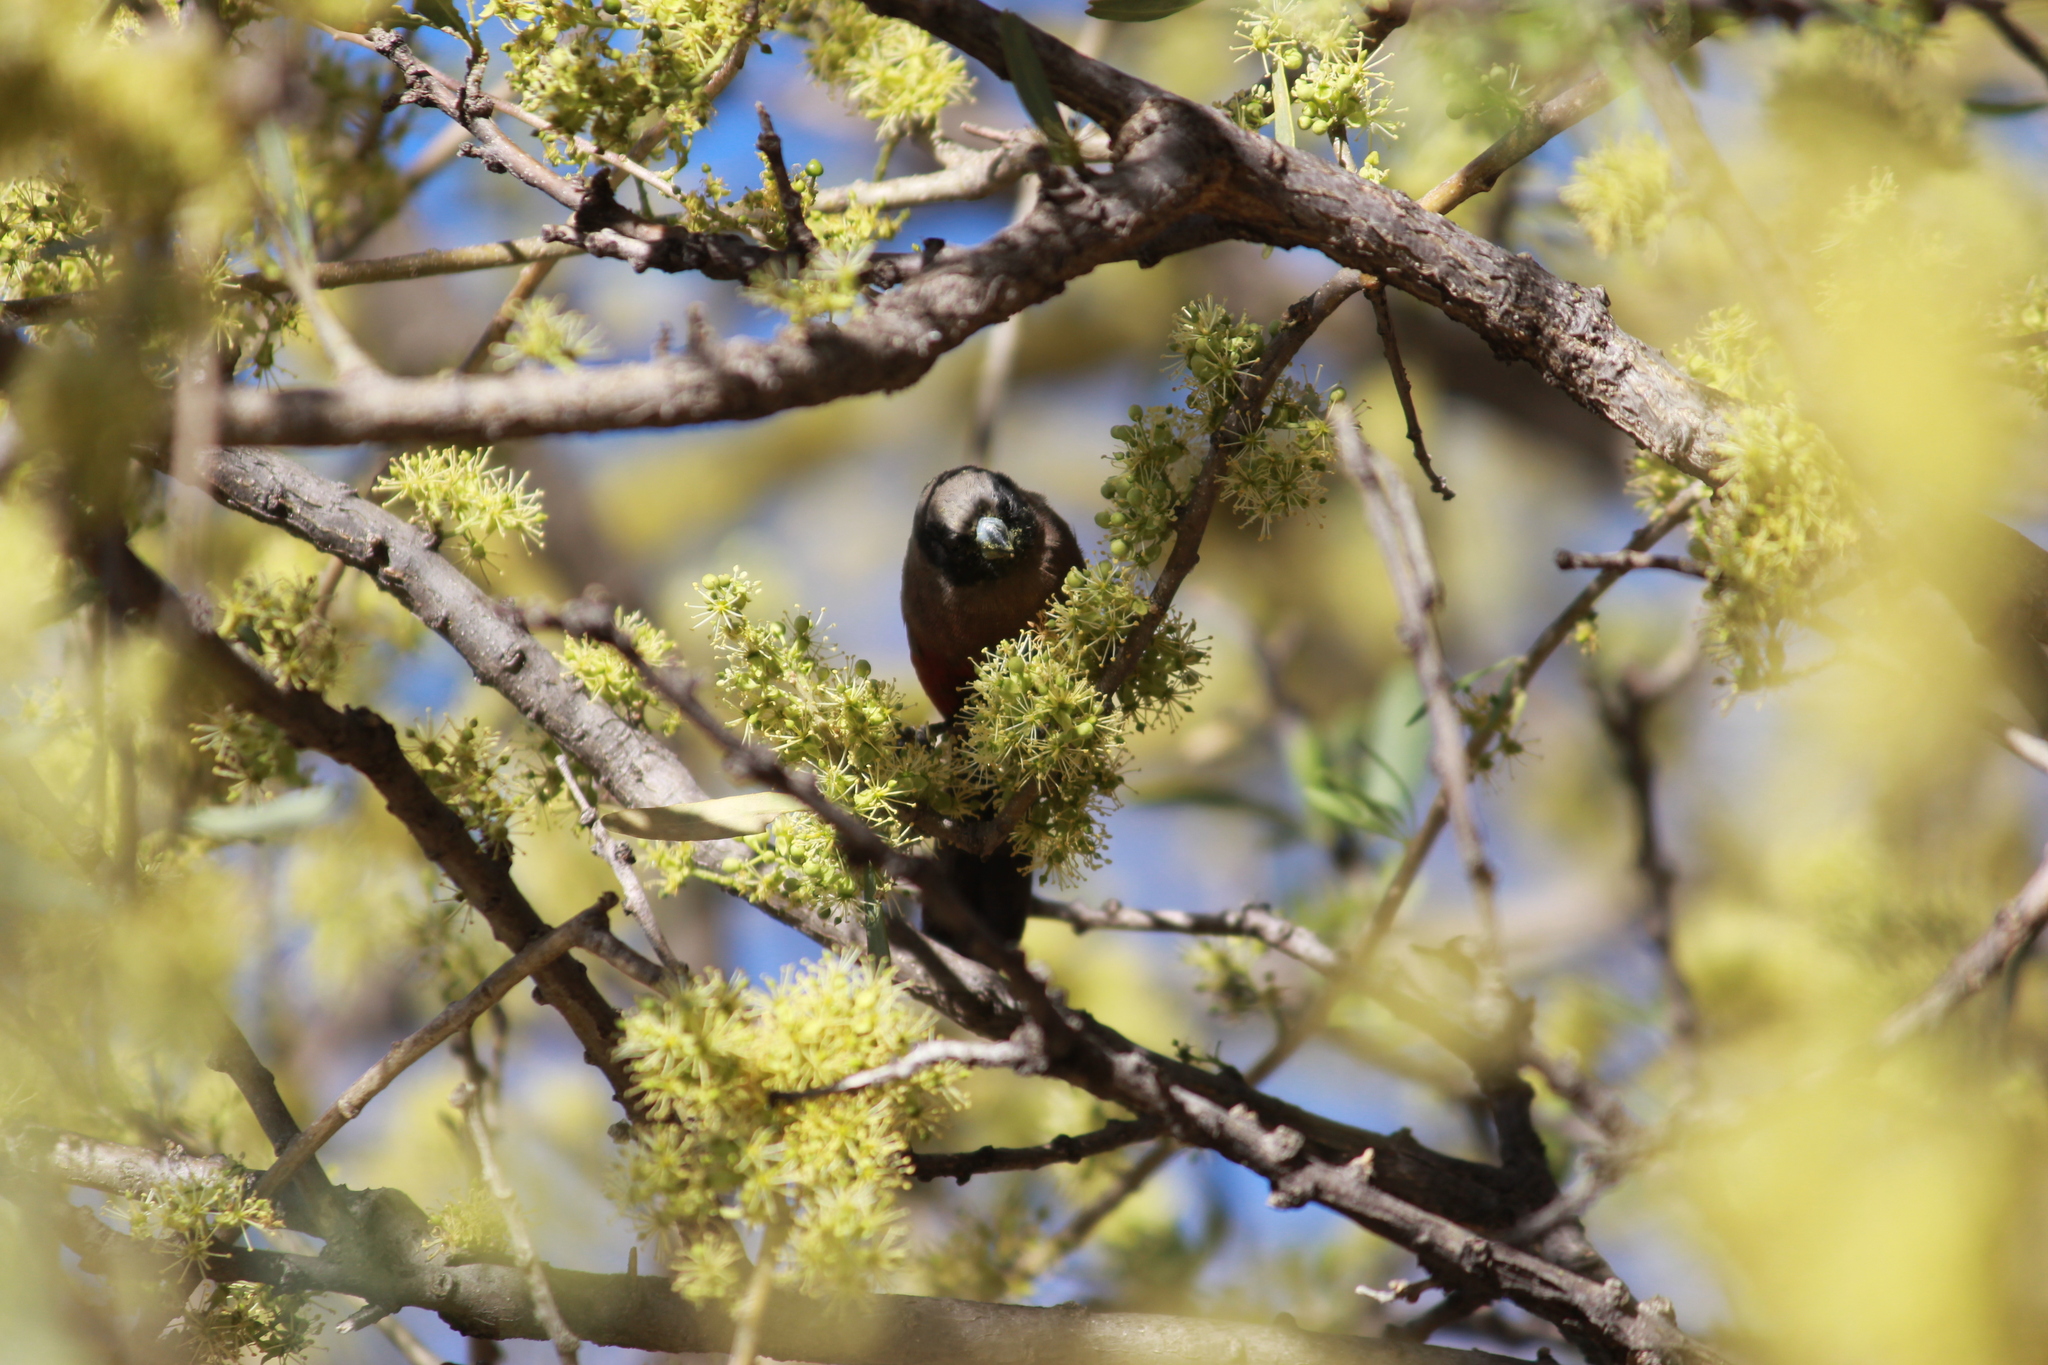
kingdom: Animalia
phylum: Chordata
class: Aves
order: Passeriformes
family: Estrildidae
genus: Estrilda
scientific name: Estrilda erythronotos
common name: Black-faced waxbill
